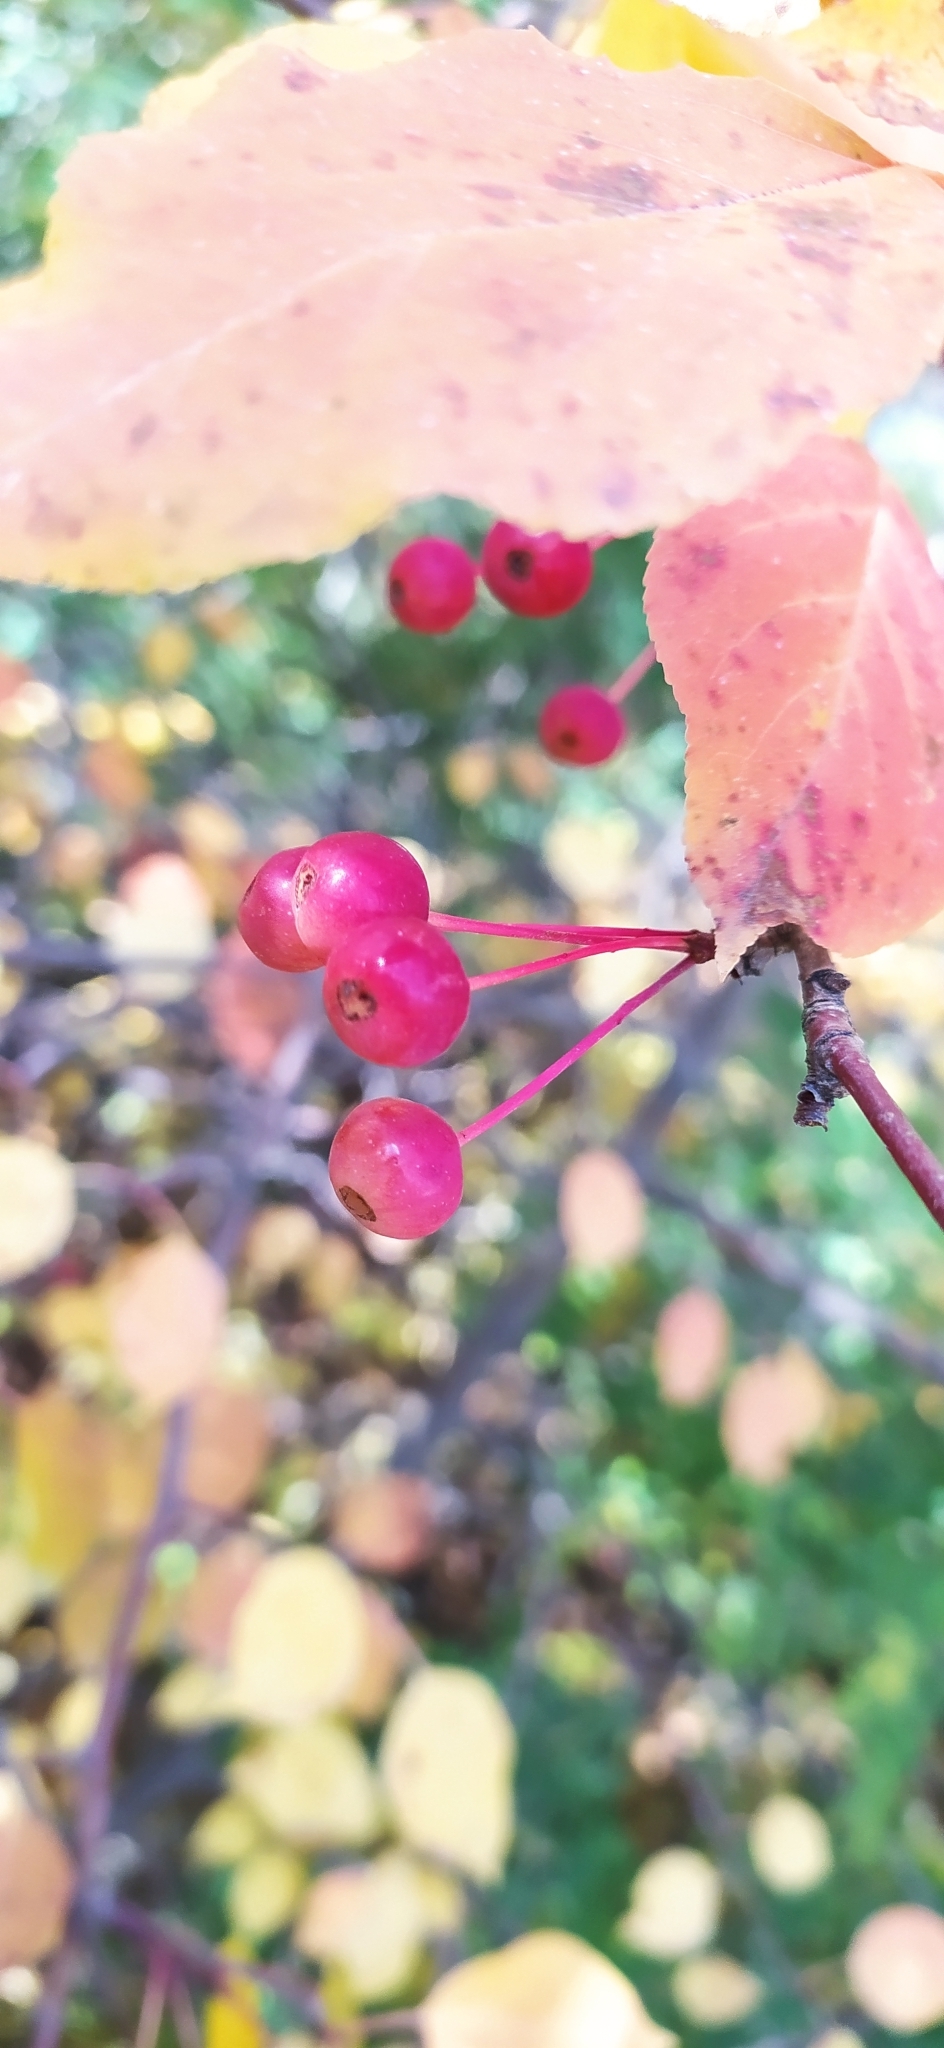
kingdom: Plantae
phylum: Tracheophyta
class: Magnoliopsida
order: Rosales
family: Rosaceae
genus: Malus
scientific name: Malus baccata
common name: Siberian crab
